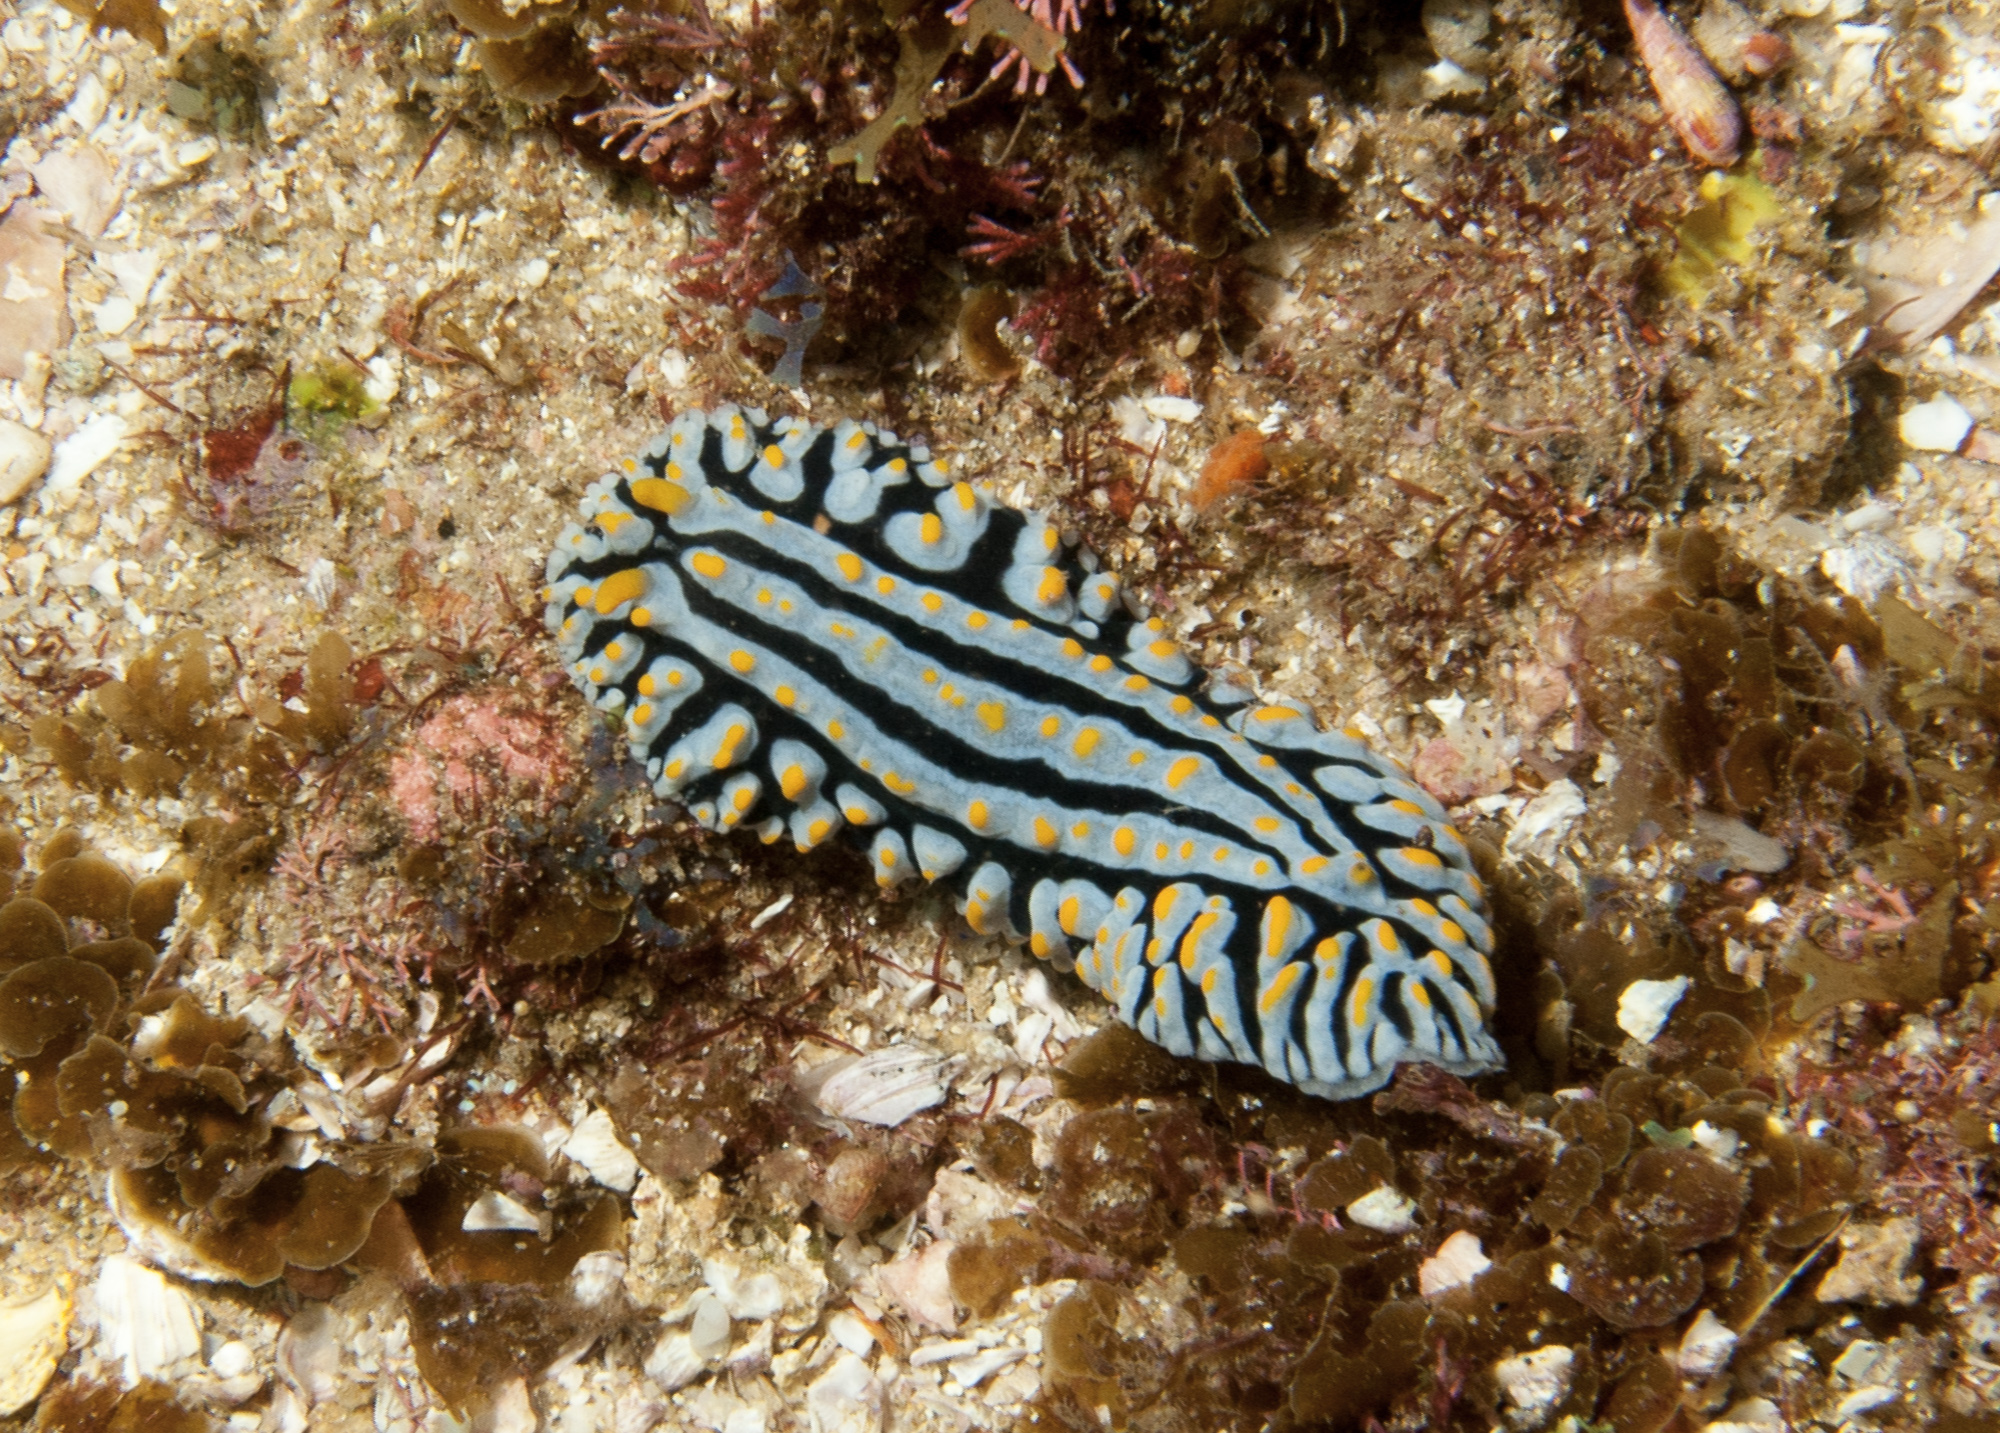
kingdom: Animalia
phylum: Mollusca
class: Gastropoda
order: Nudibranchia
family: Phyllidiidae
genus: Phyllidia
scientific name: Phyllidia varicosa
